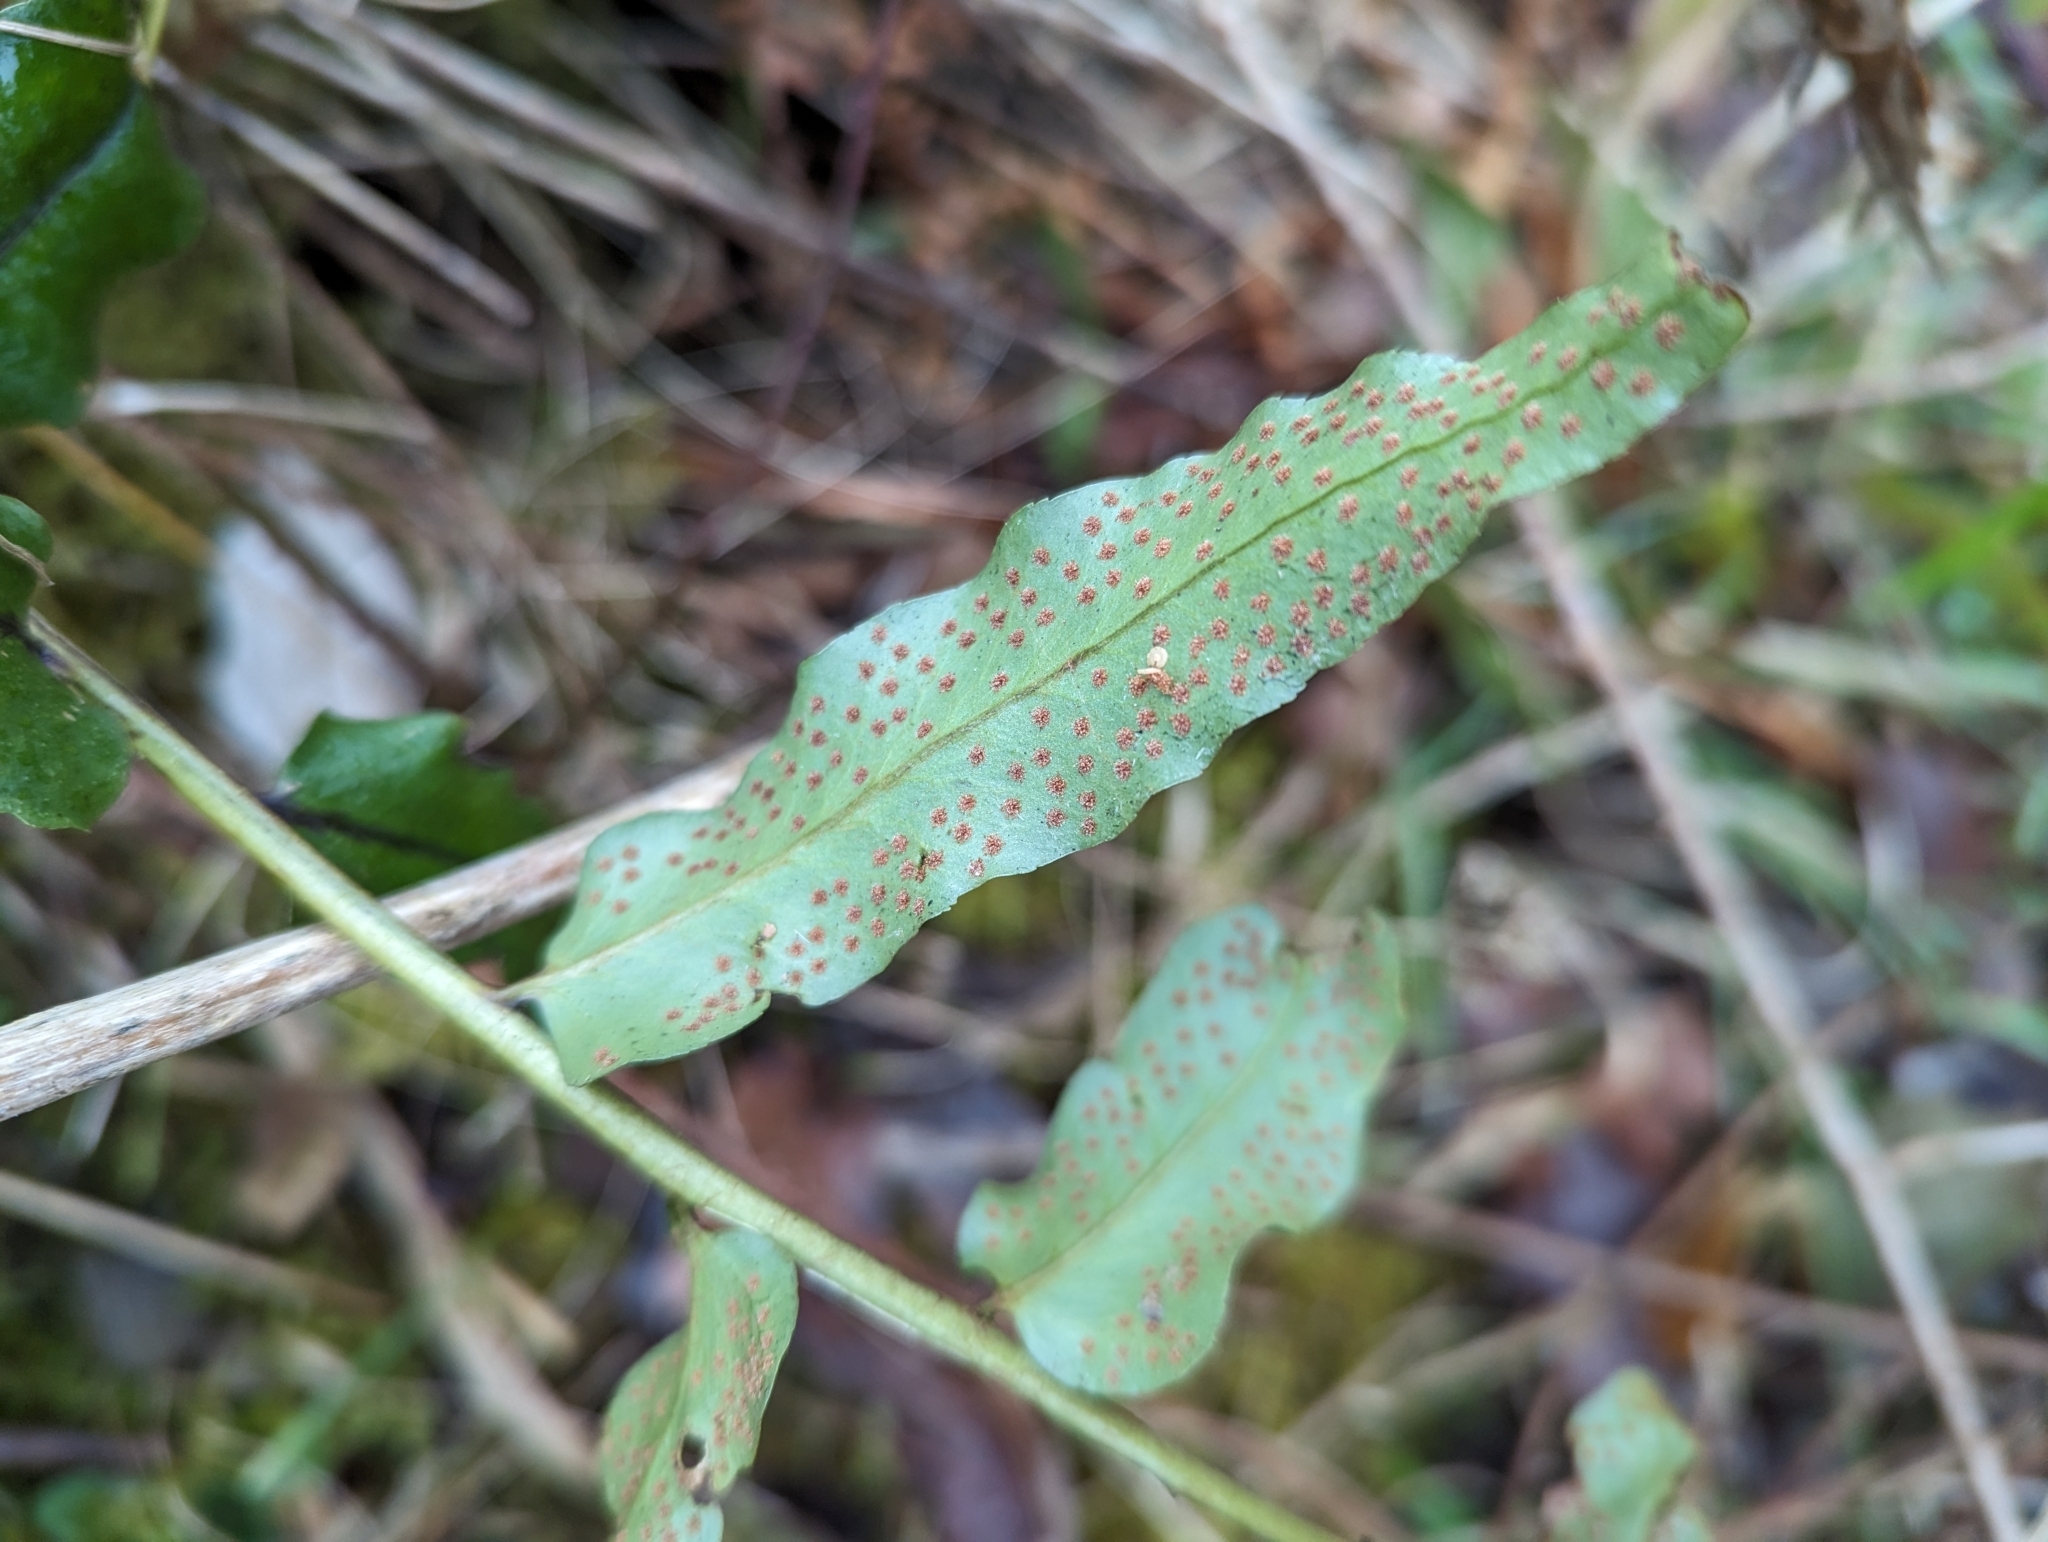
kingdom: Plantae
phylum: Tracheophyta
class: Polypodiopsida
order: Polypodiales
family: Dryopteridaceae
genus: Cyrtomium
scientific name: Cyrtomium fortunei
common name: Asian netvein hollyfern
